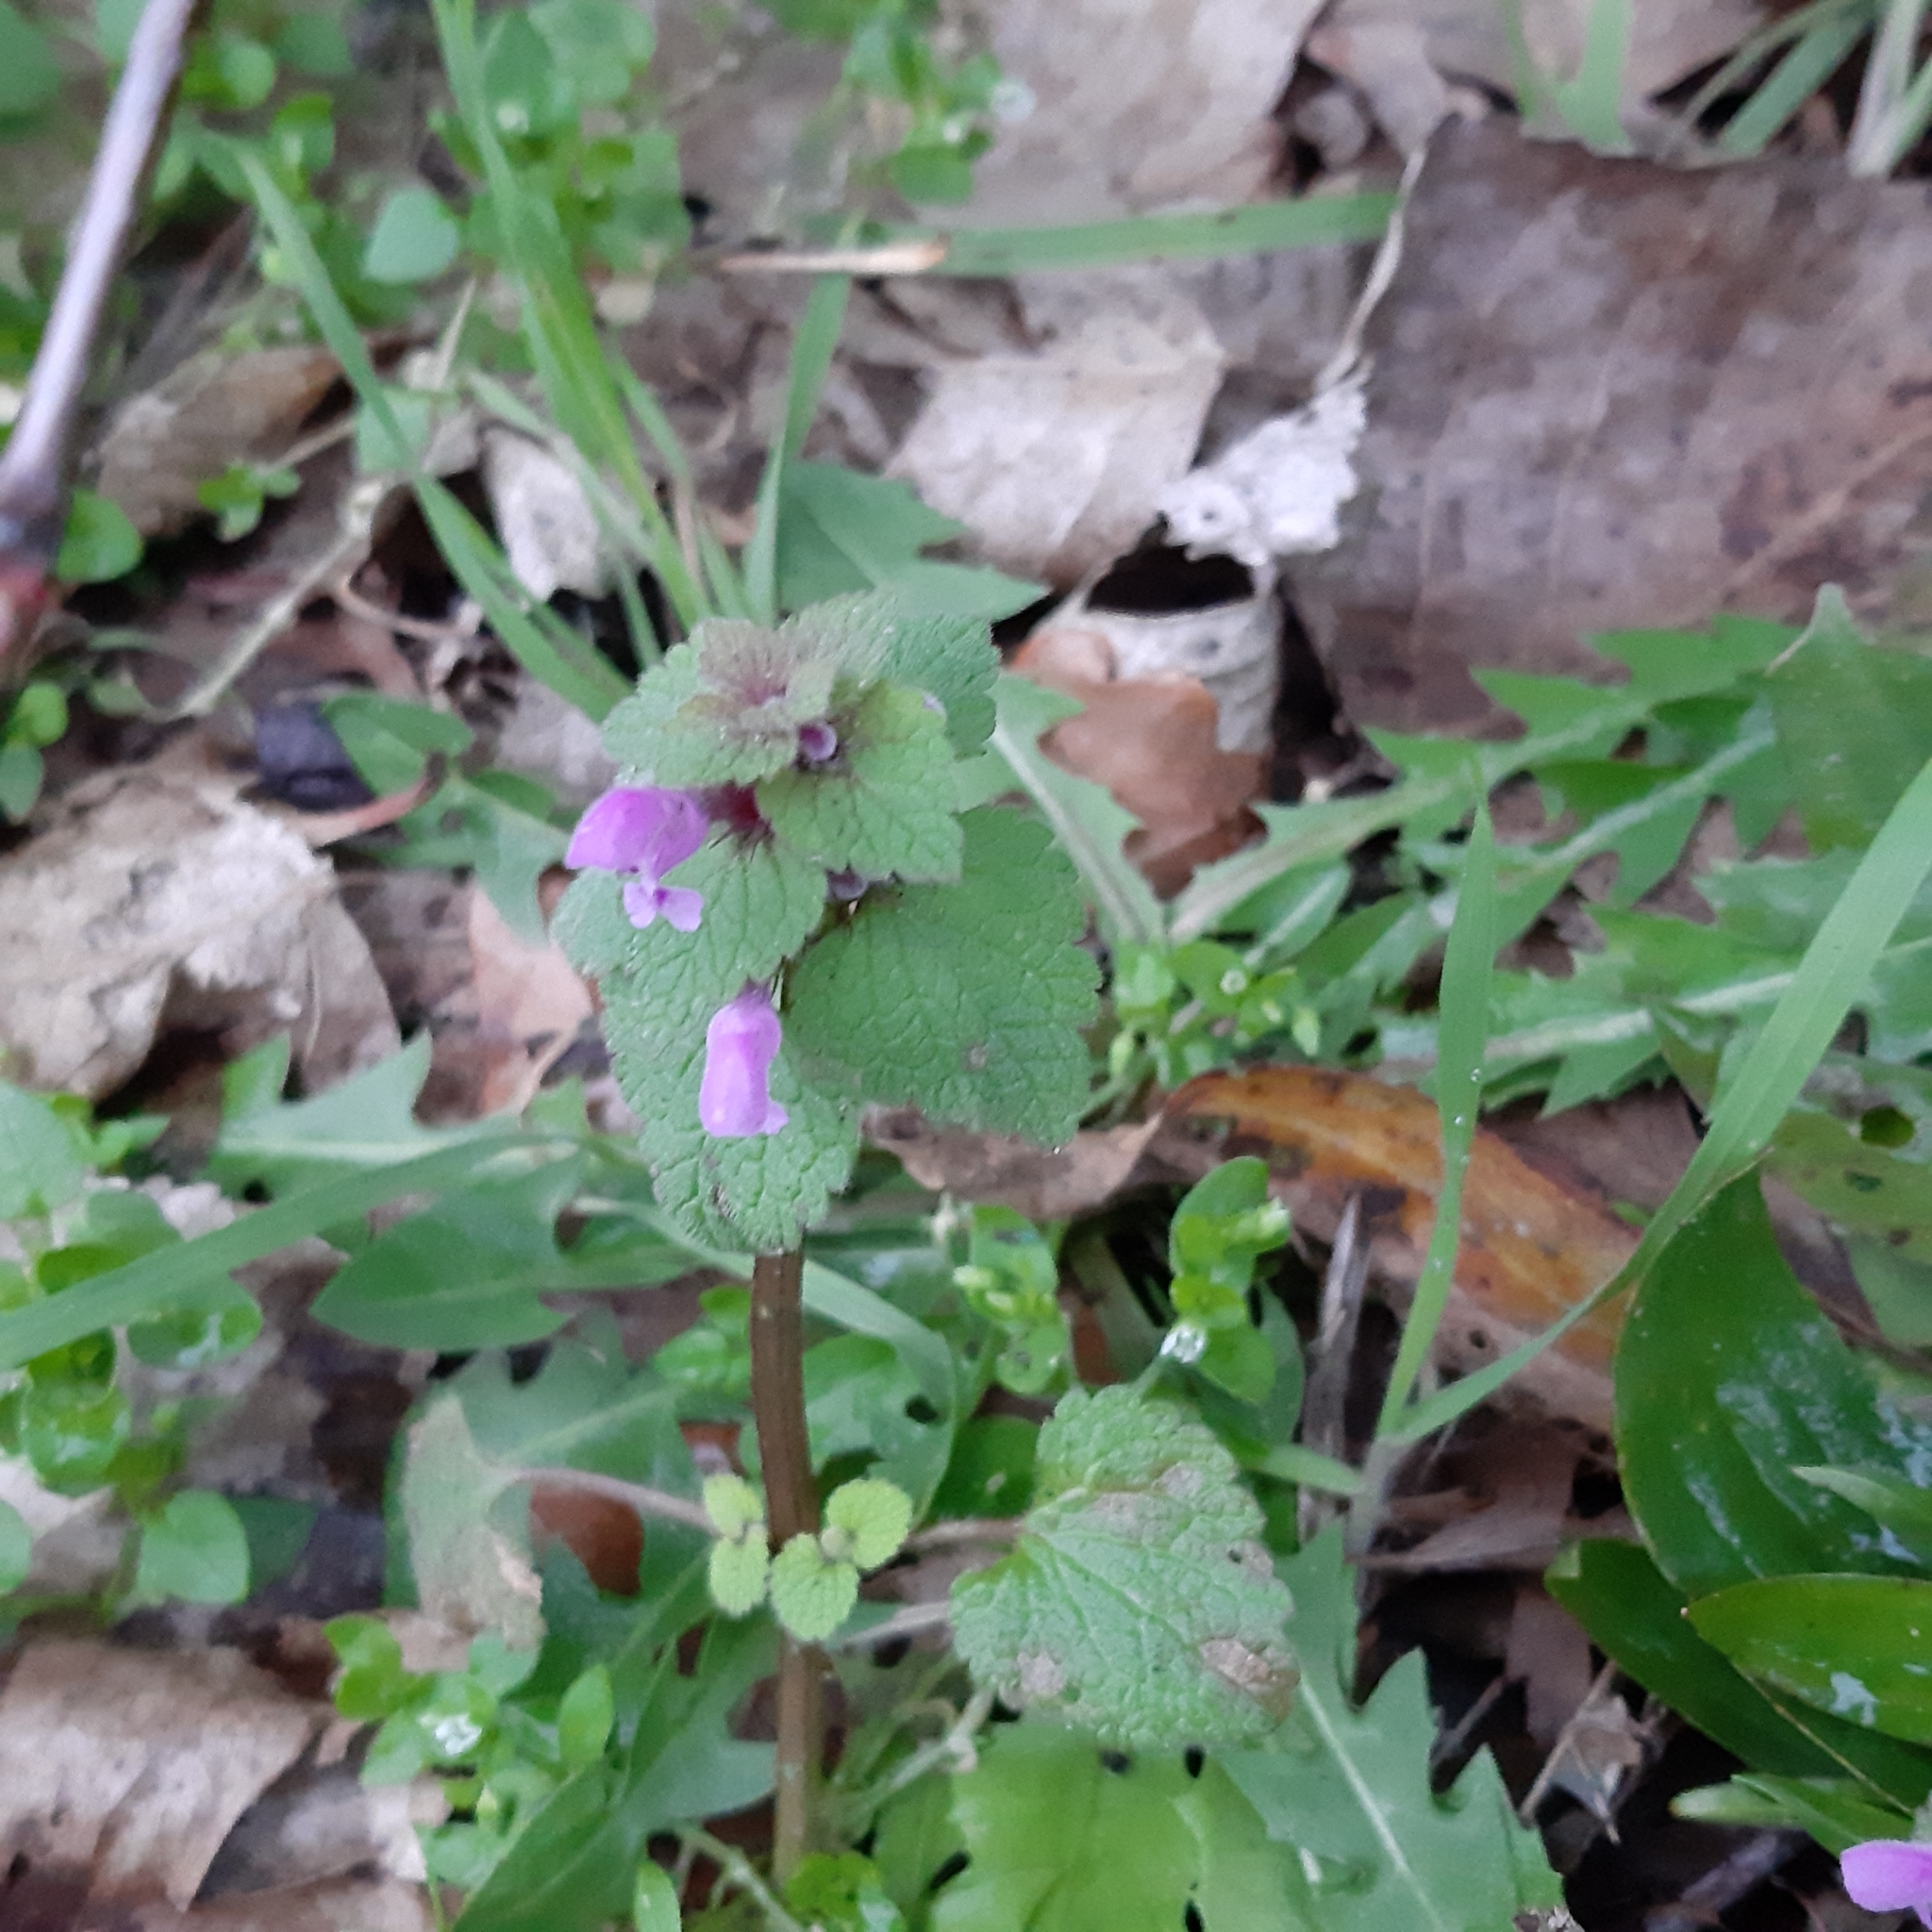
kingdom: Plantae
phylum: Tracheophyta
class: Magnoliopsida
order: Lamiales
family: Lamiaceae
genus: Lamium
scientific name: Lamium purpureum
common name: Red dead-nettle
